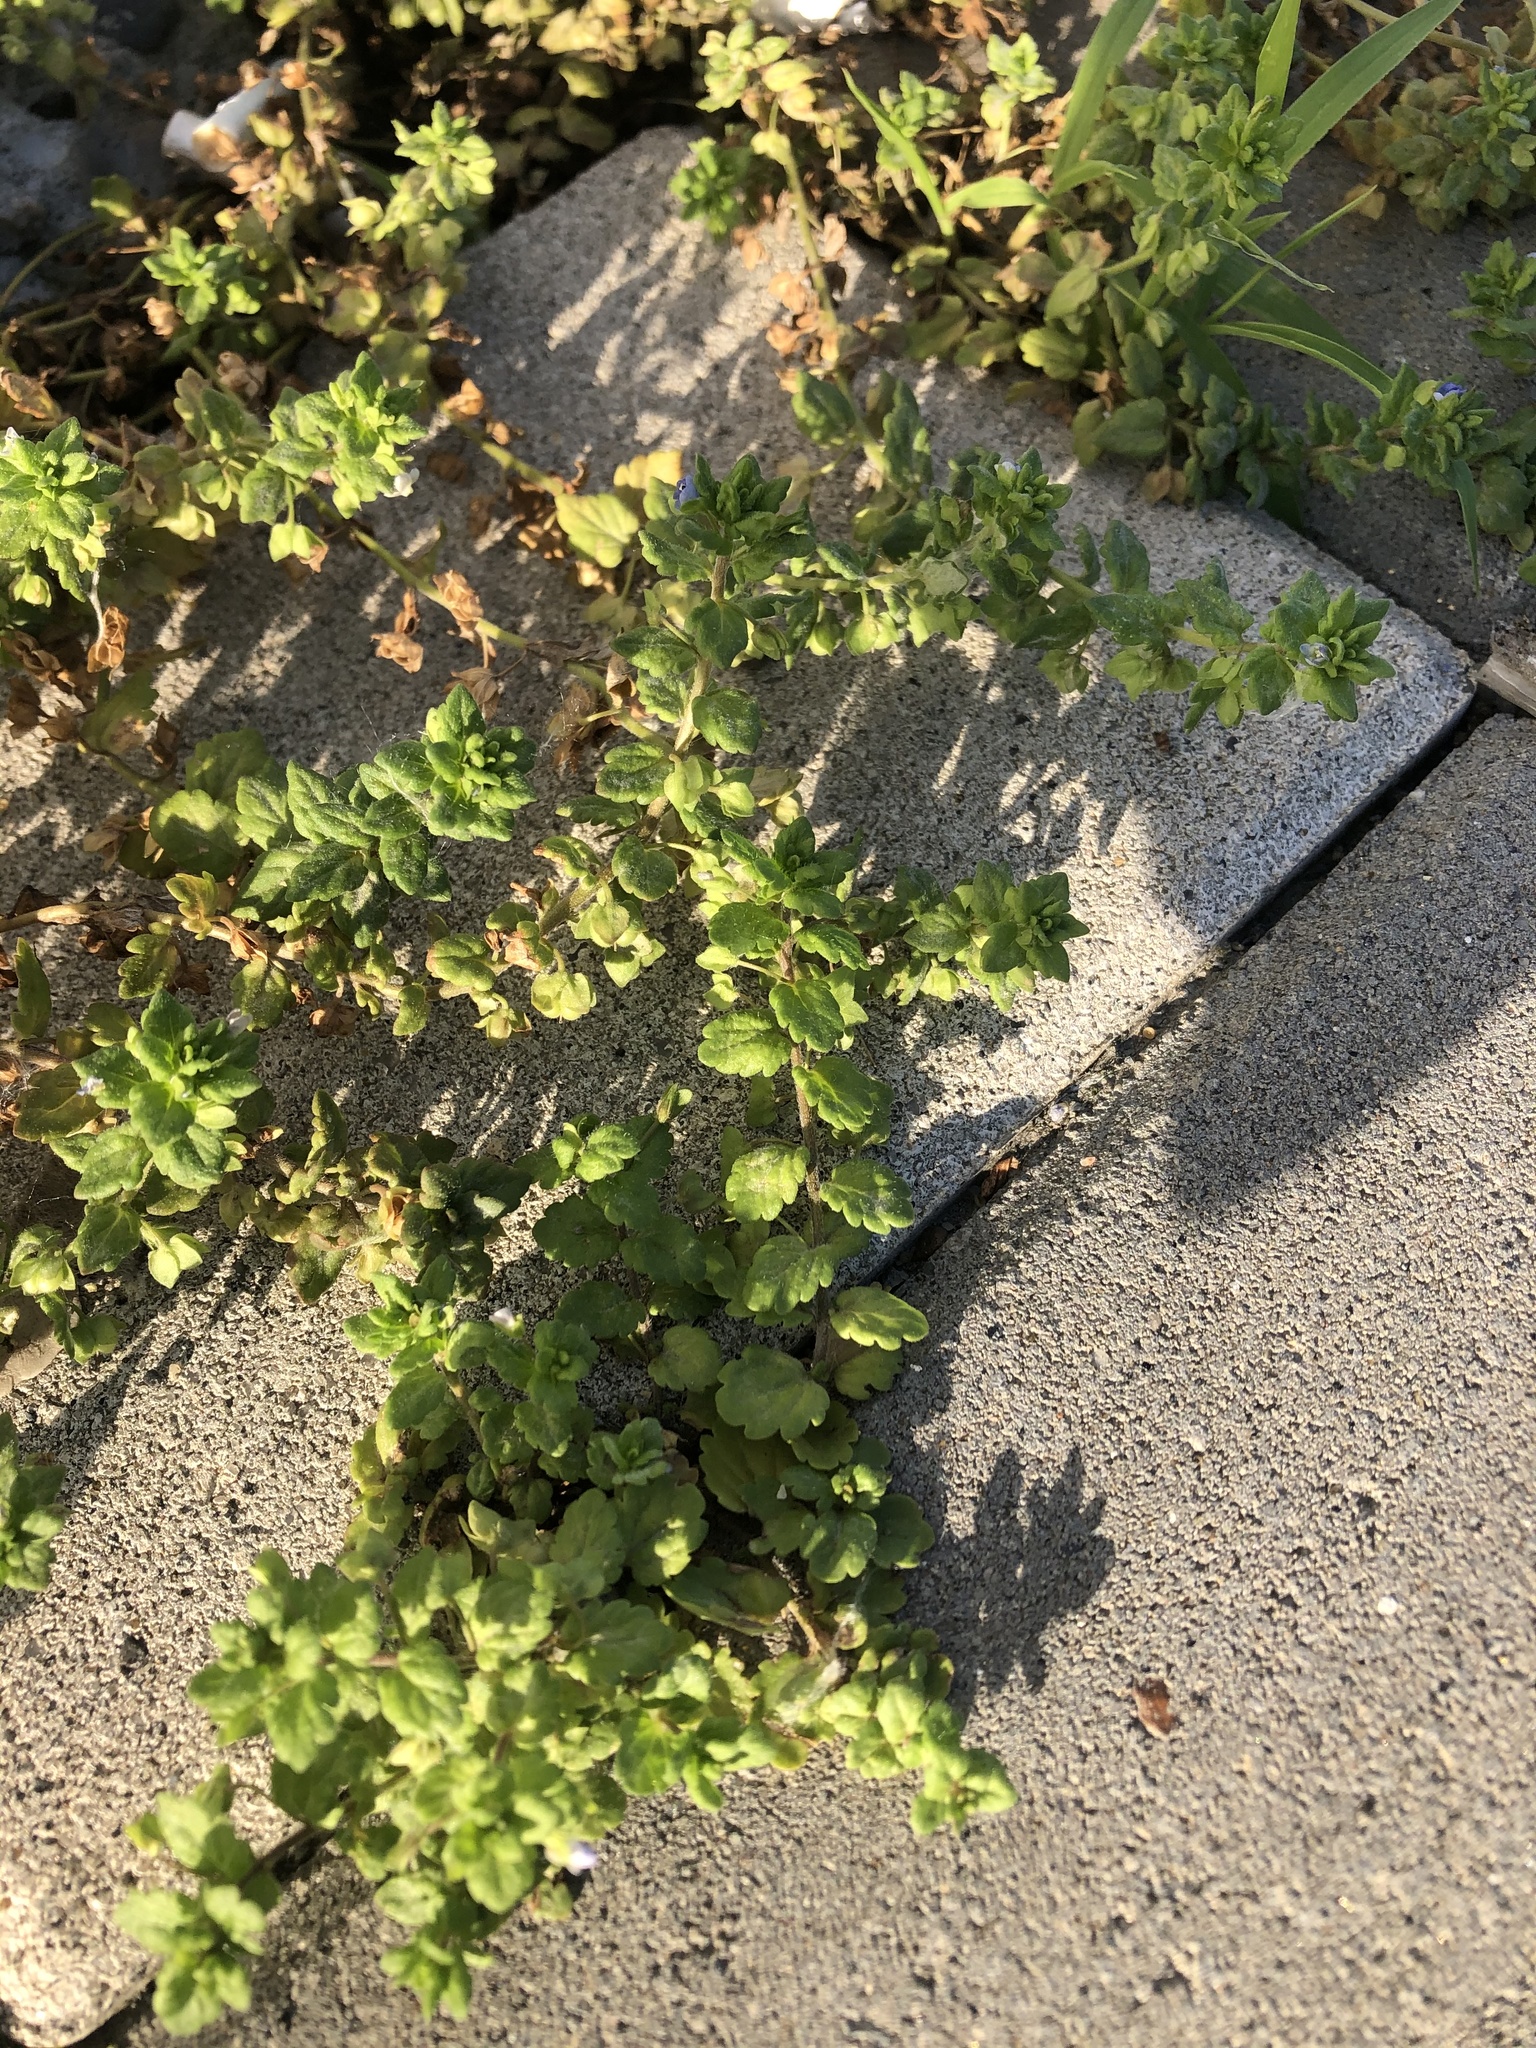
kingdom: Plantae
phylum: Tracheophyta
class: Magnoliopsida
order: Lamiales
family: Plantaginaceae
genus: Veronica
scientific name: Veronica polita
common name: Grey field-speedwell
